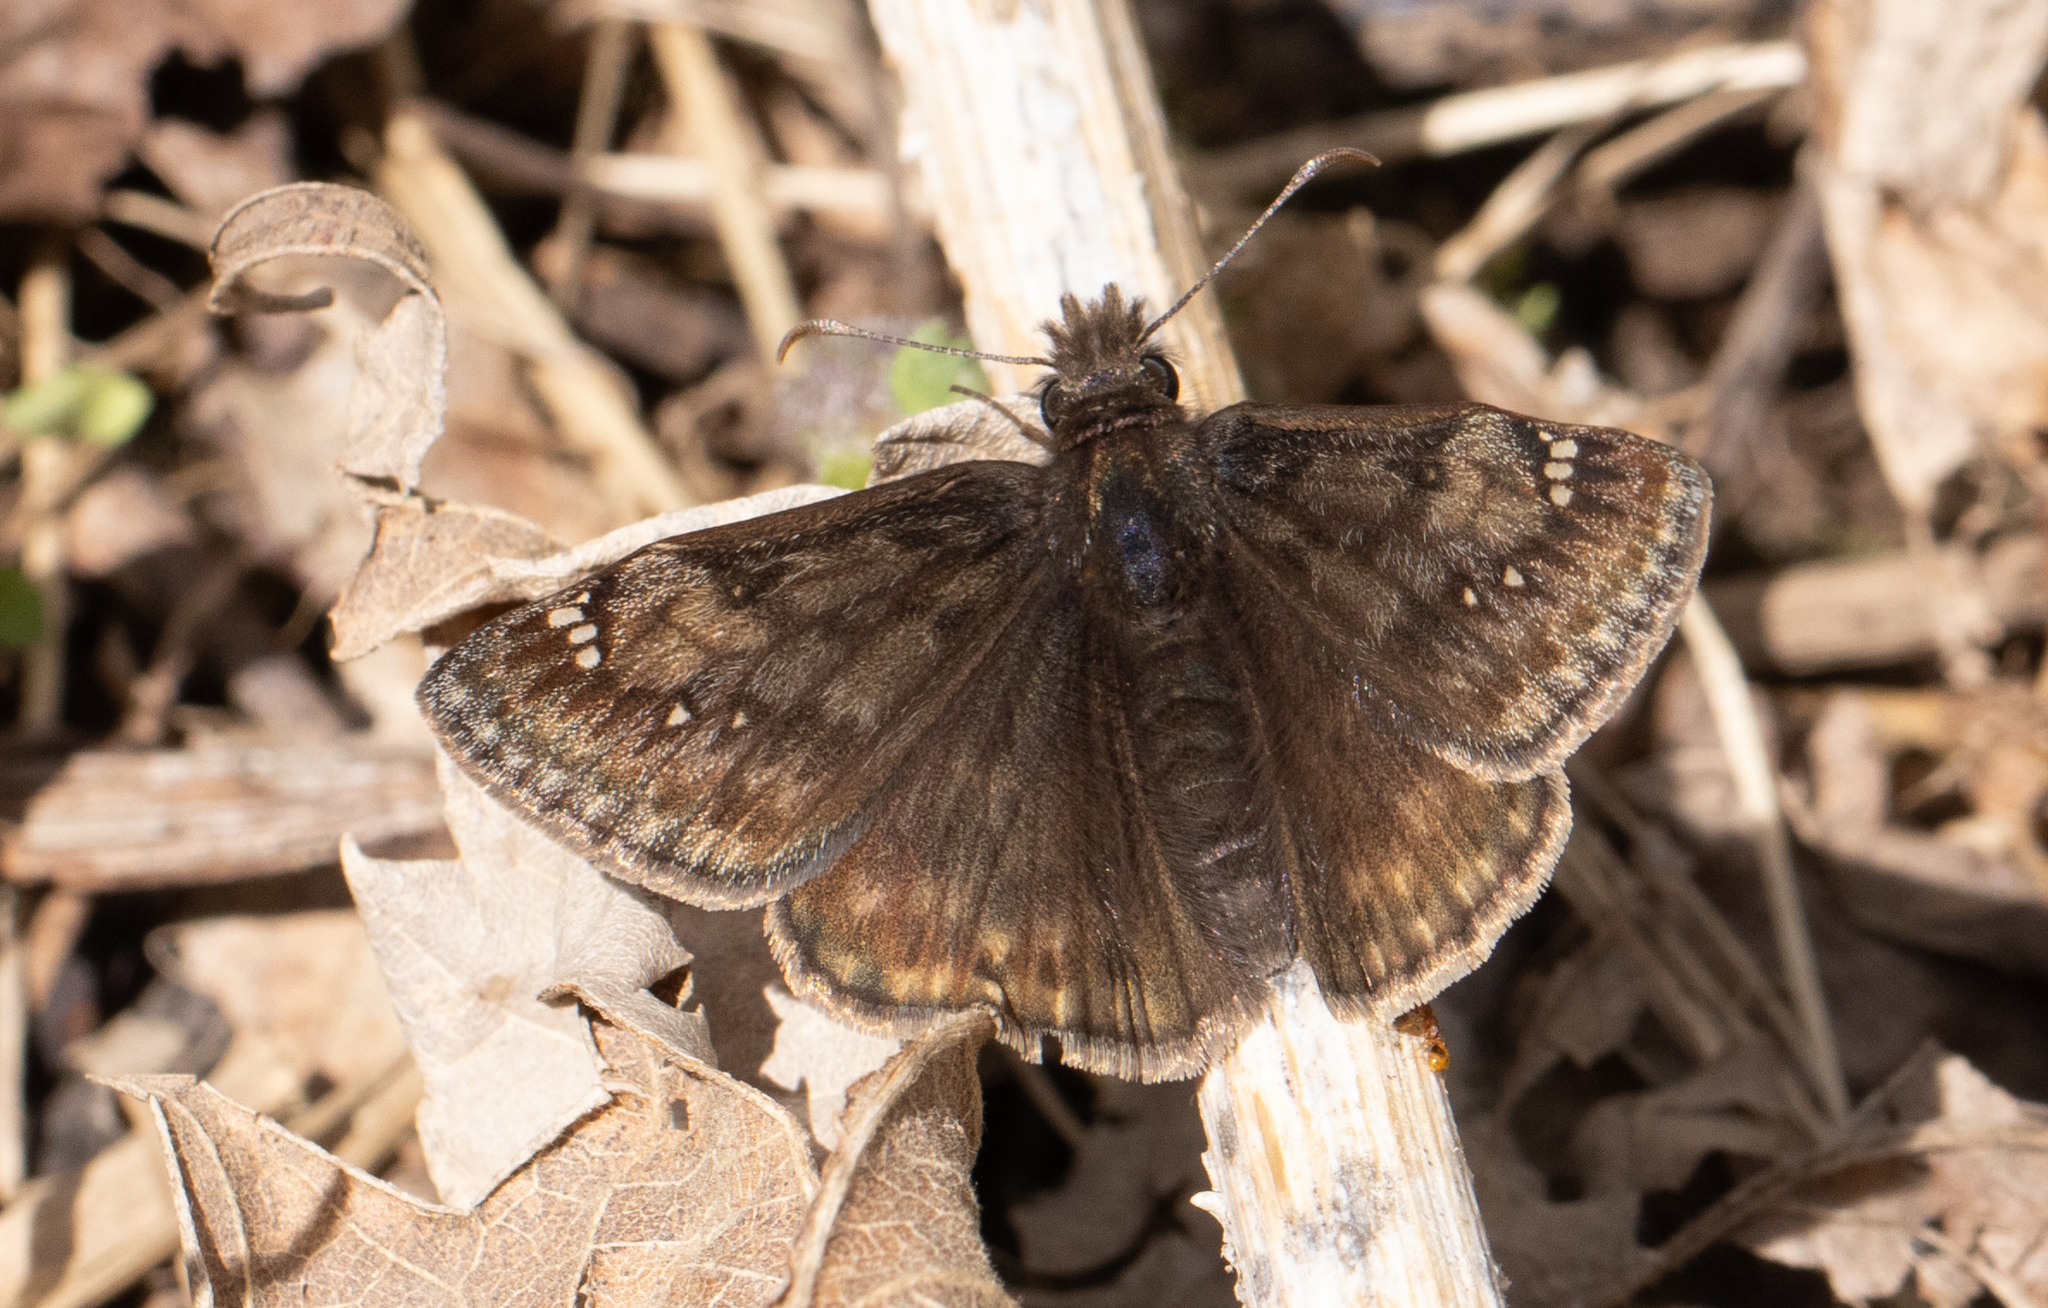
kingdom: Animalia
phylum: Arthropoda
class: Insecta
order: Lepidoptera
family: Hesperiidae
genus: Erynnis
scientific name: Erynnis juvenalis
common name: Juvenal's duskywing
